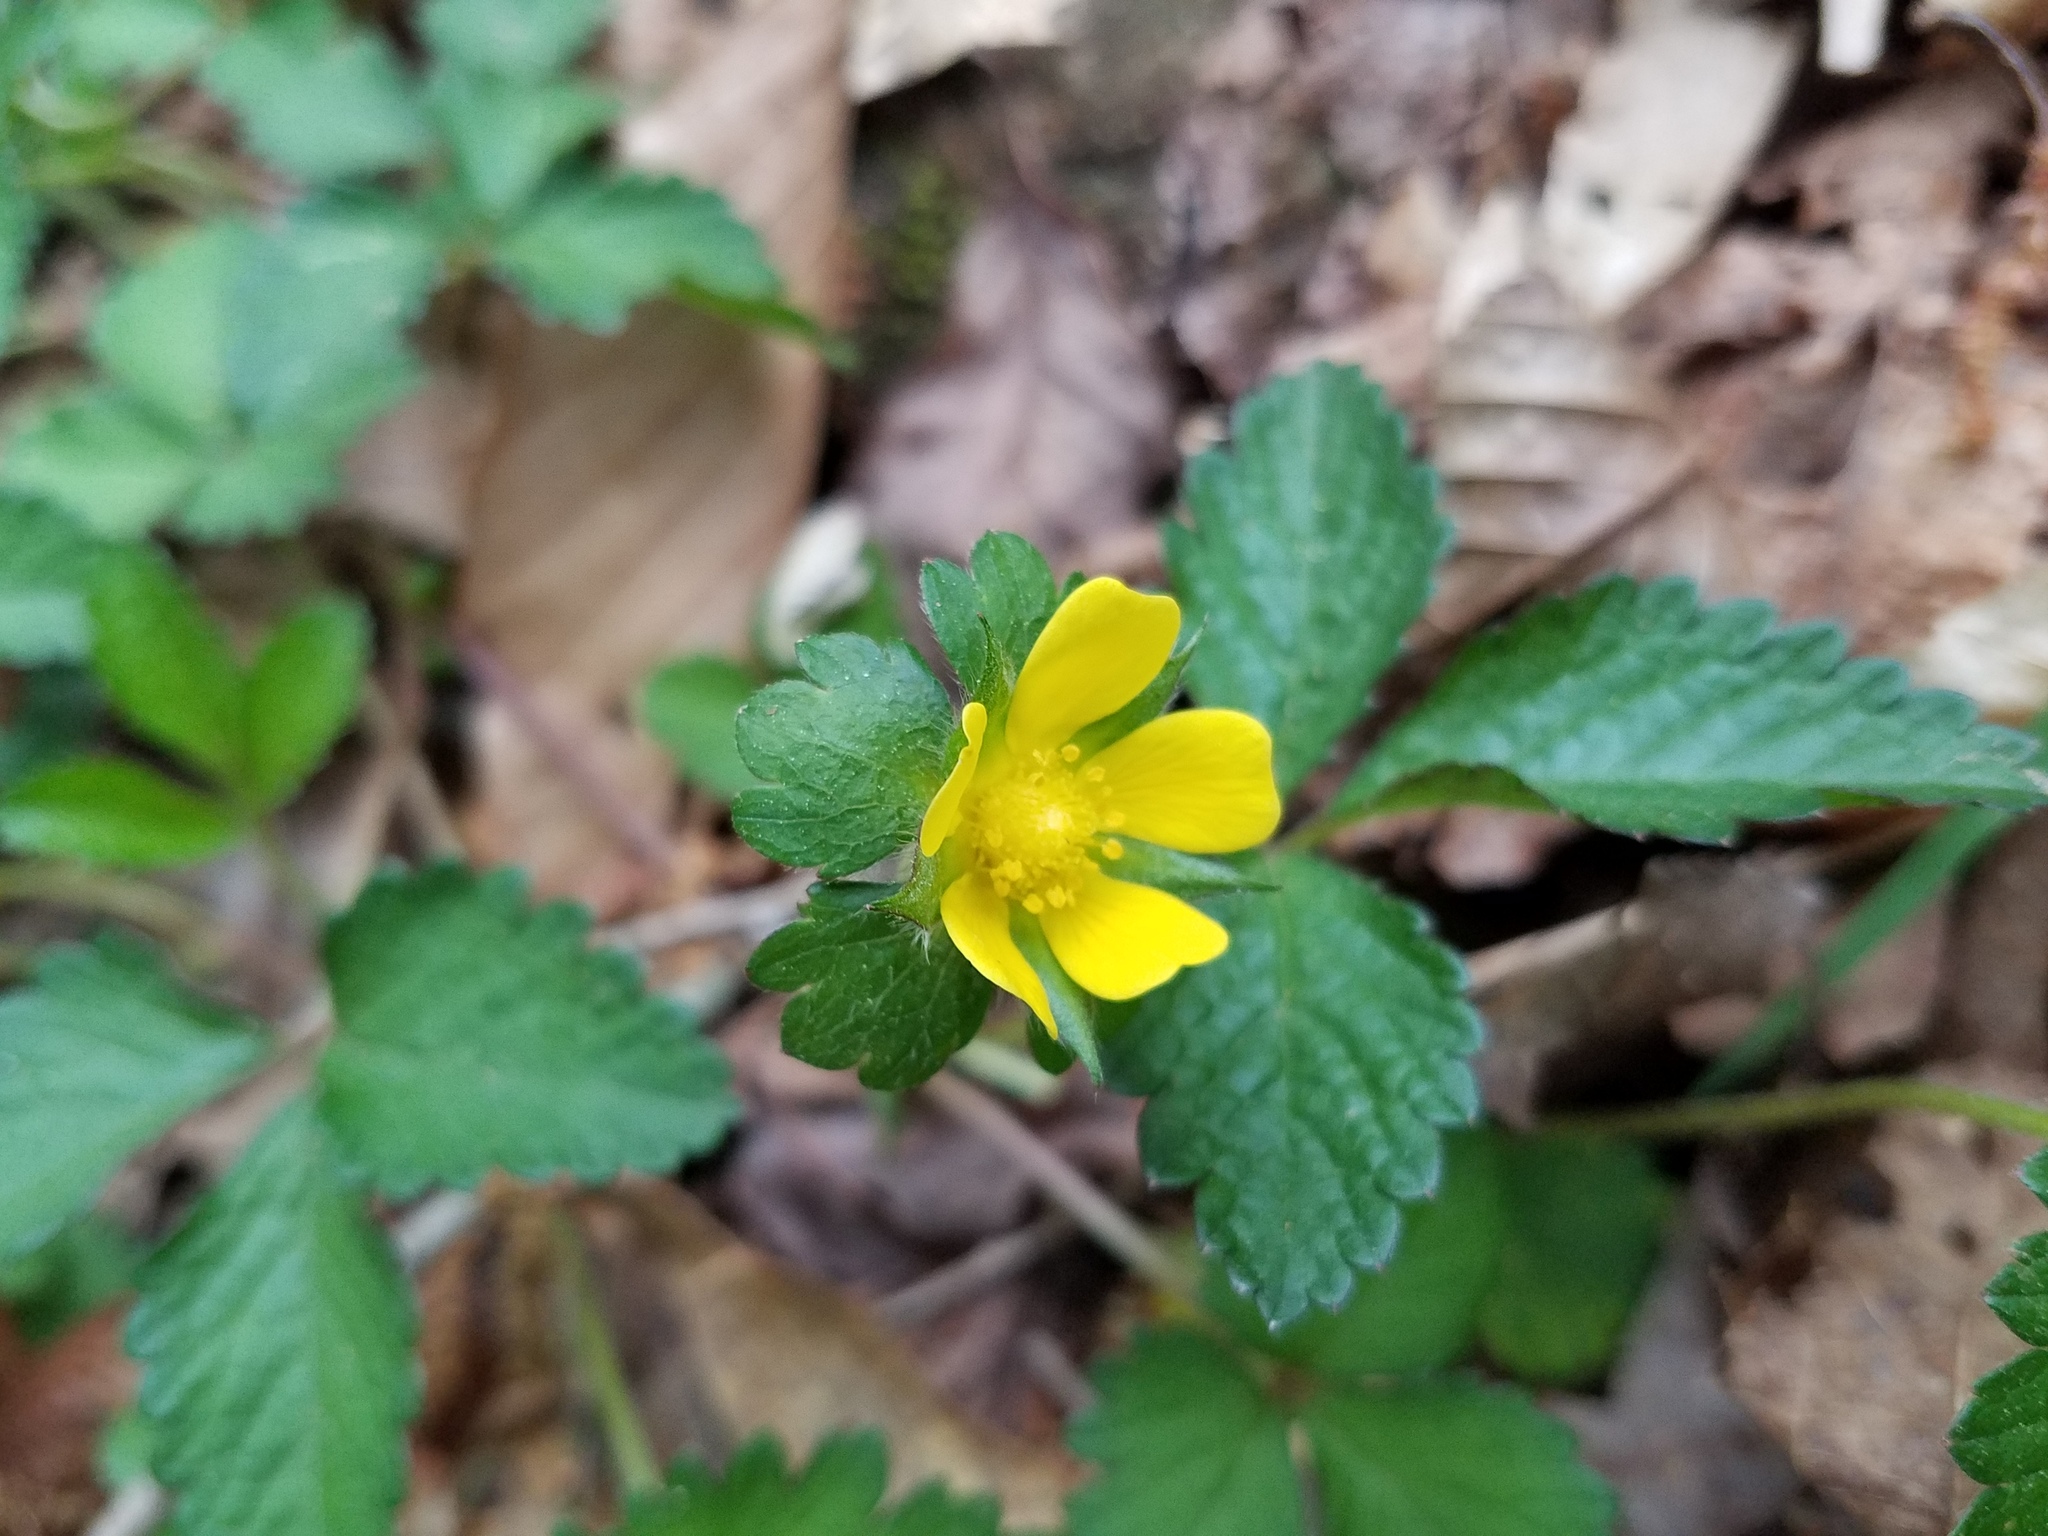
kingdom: Plantae
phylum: Tracheophyta
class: Magnoliopsida
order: Rosales
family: Rosaceae
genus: Potentilla
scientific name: Potentilla indica
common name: Yellow-flowered strawberry
